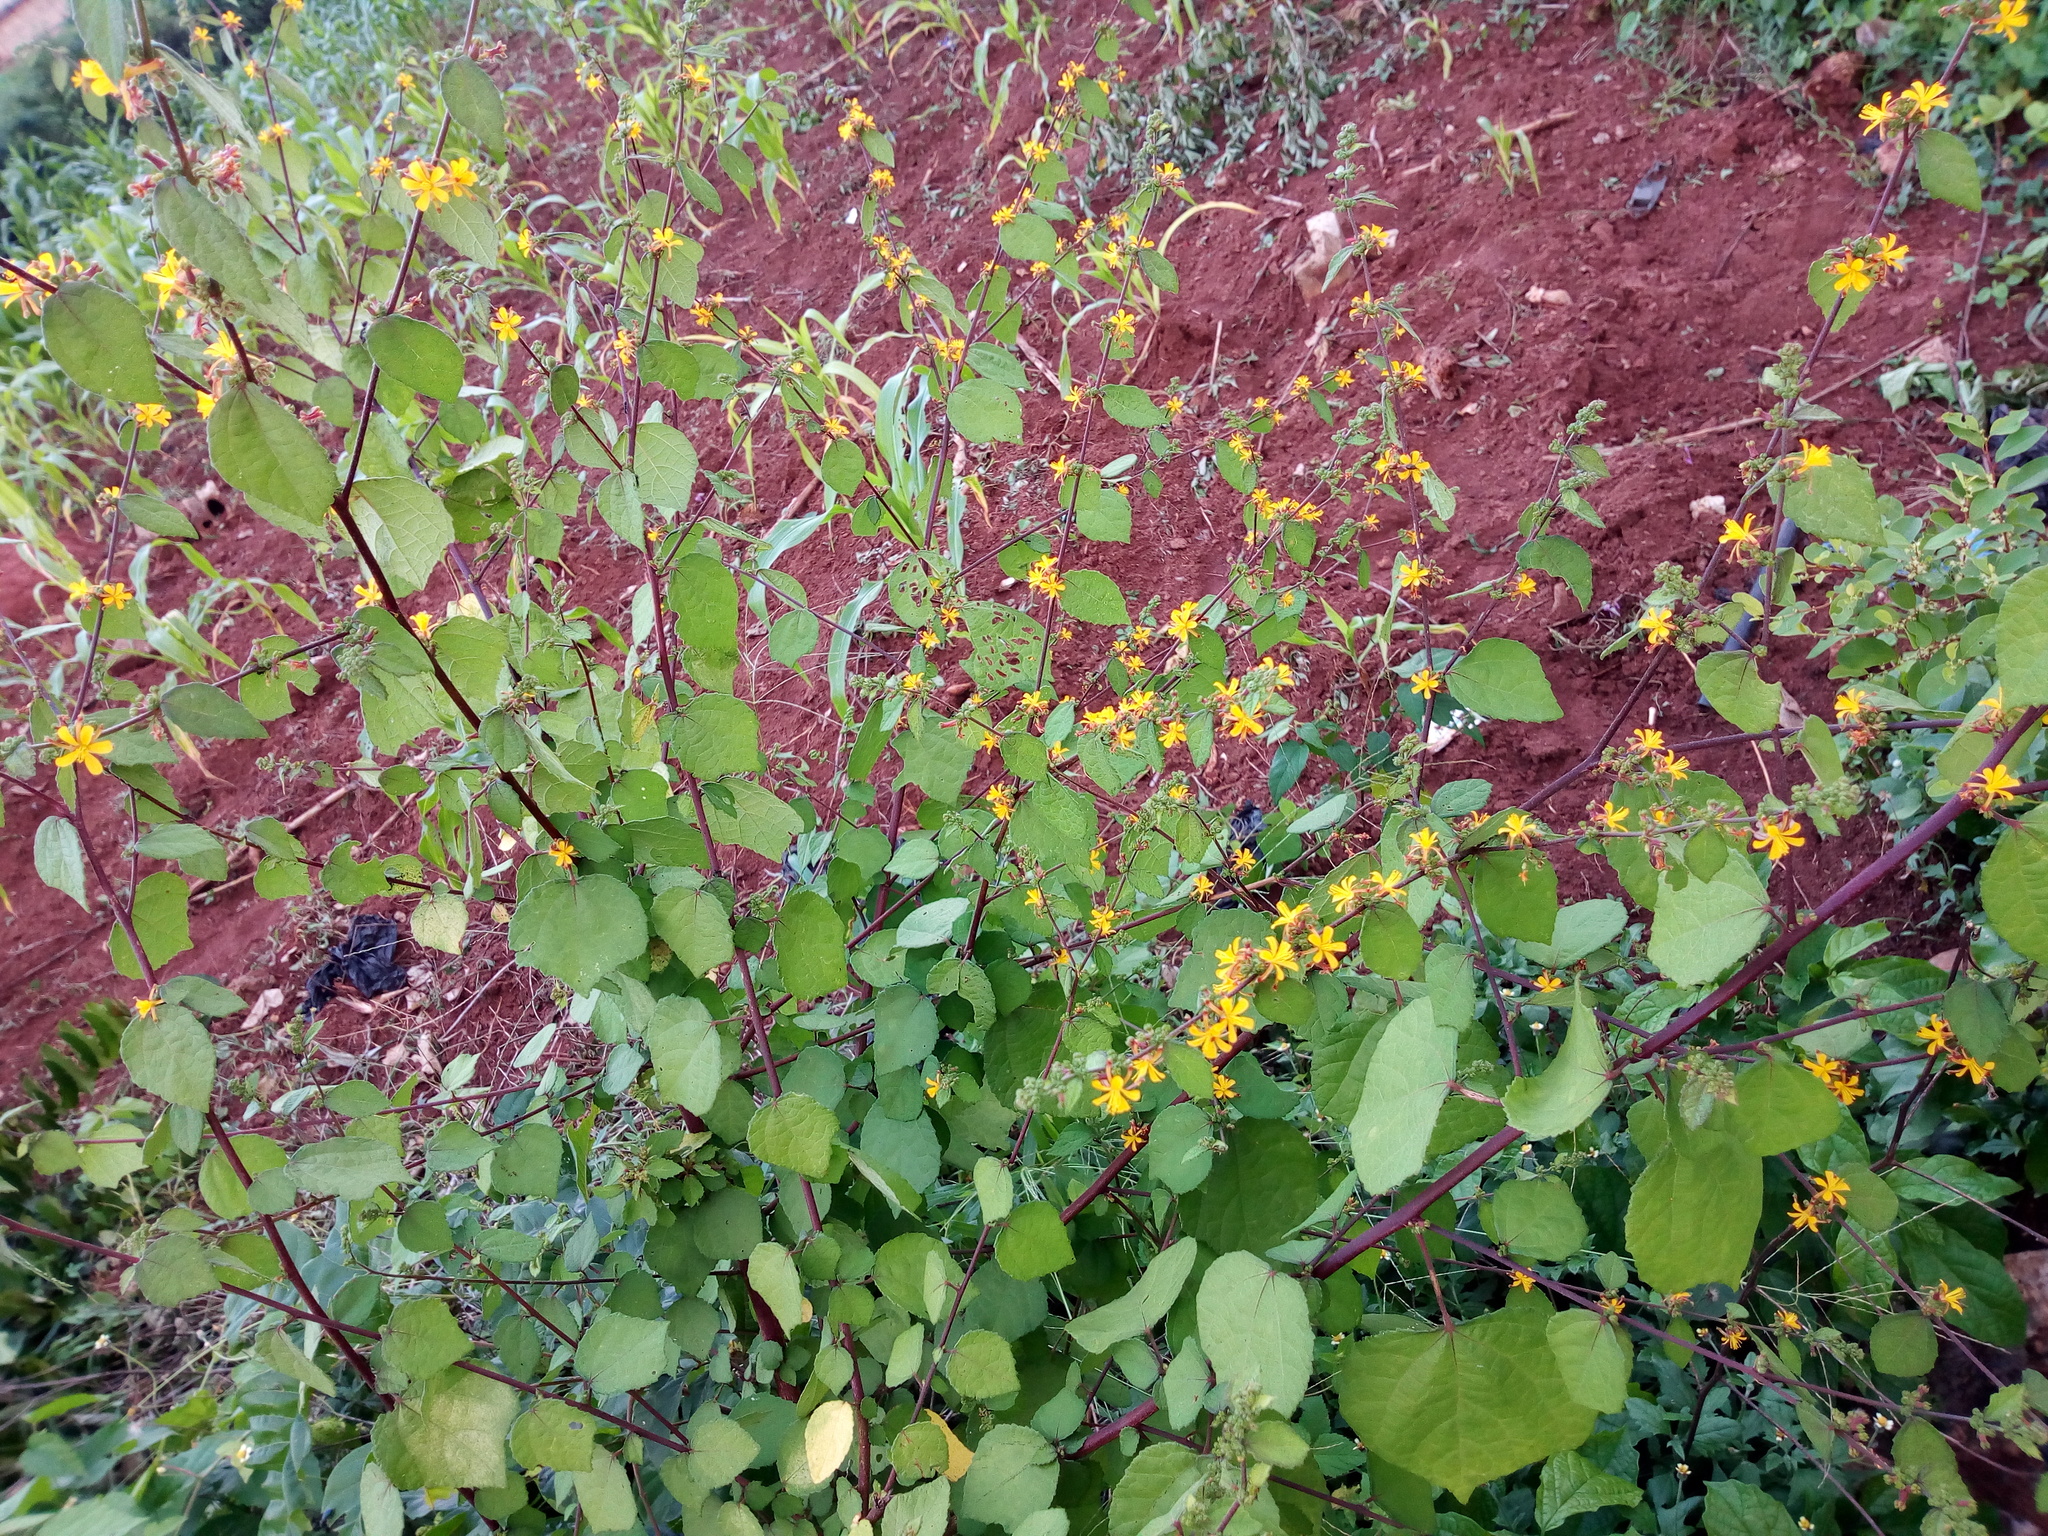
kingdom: Plantae
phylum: Tracheophyta
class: Magnoliopsida
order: Malvales
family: Malvaceae
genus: Triumfetta
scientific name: Triumfetta rhomboidea
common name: Diamond burbark
